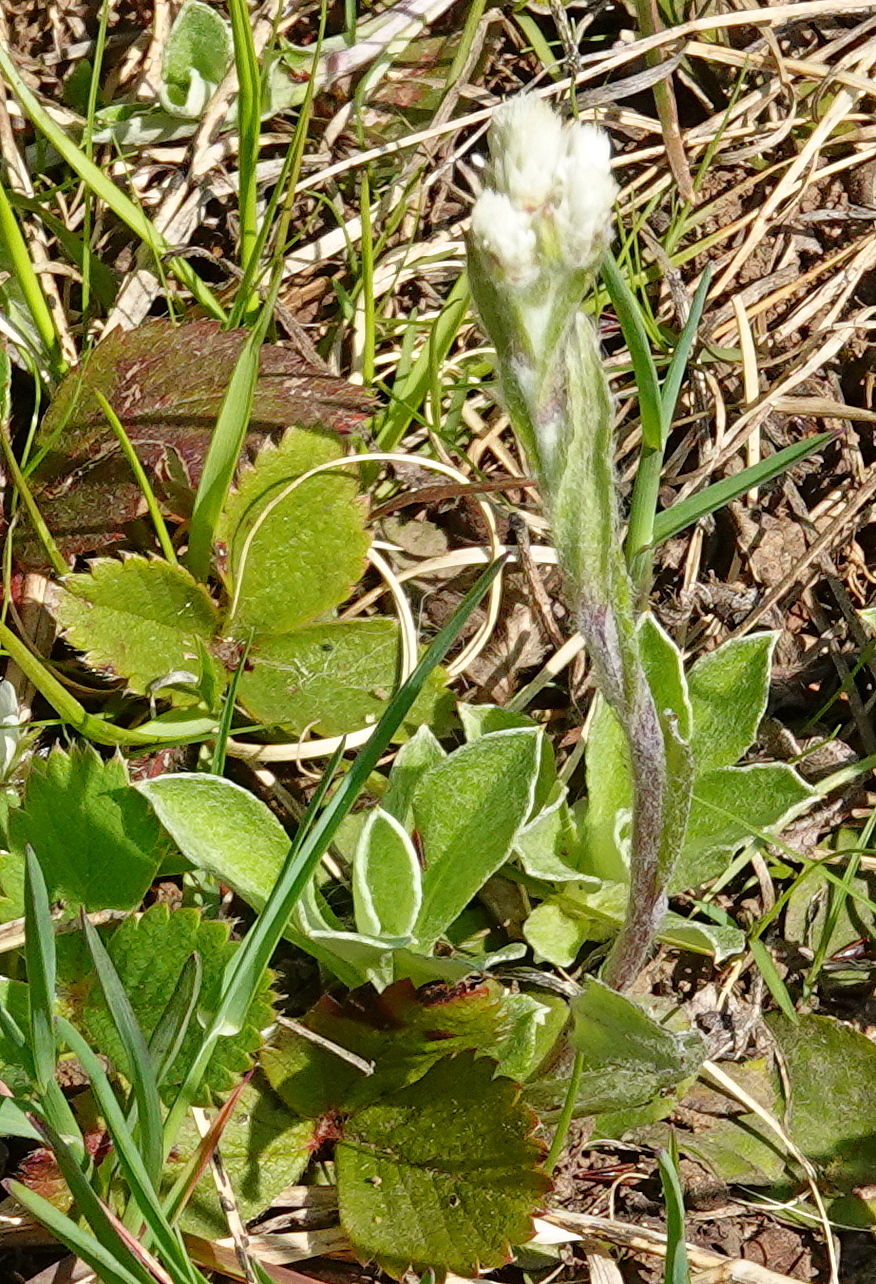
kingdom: Plantae
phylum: Tracheophyta
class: Magnoliopsida
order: Asterales
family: Asteraceae
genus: Antennaria
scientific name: Antennaria howellii
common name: Howell's pussytoes
